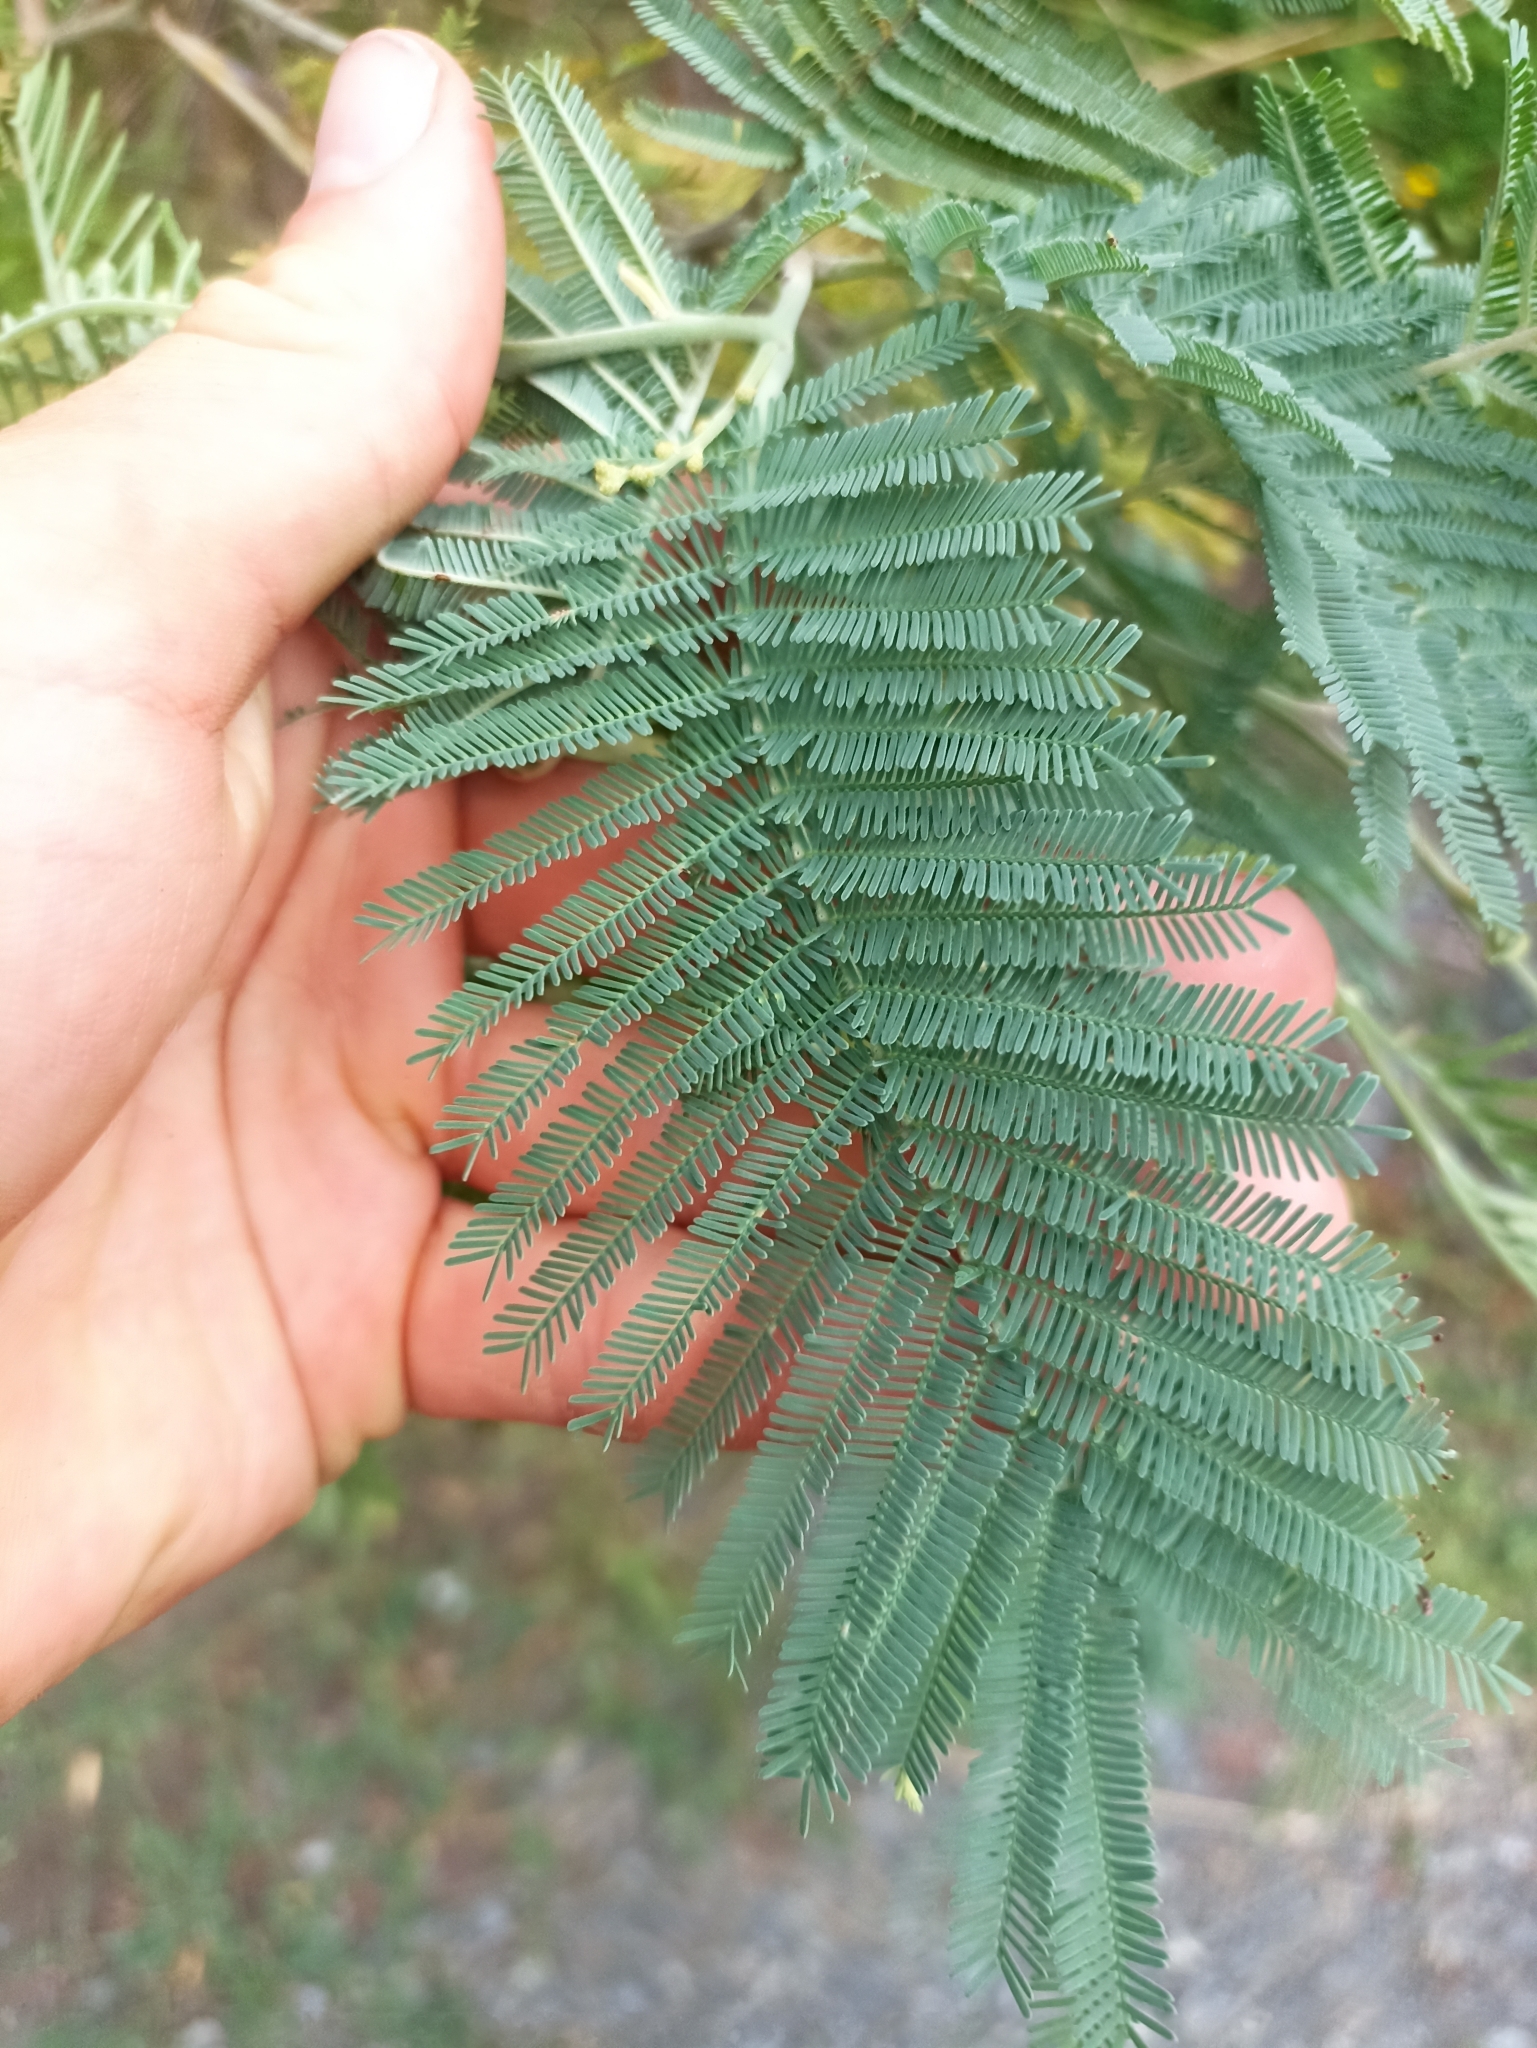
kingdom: Plantae
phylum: Tracheophyta
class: Magnoliopsida
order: Fabales
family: Fabaceae
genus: Acacia
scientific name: Acacia dealbata
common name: Silver wattle
